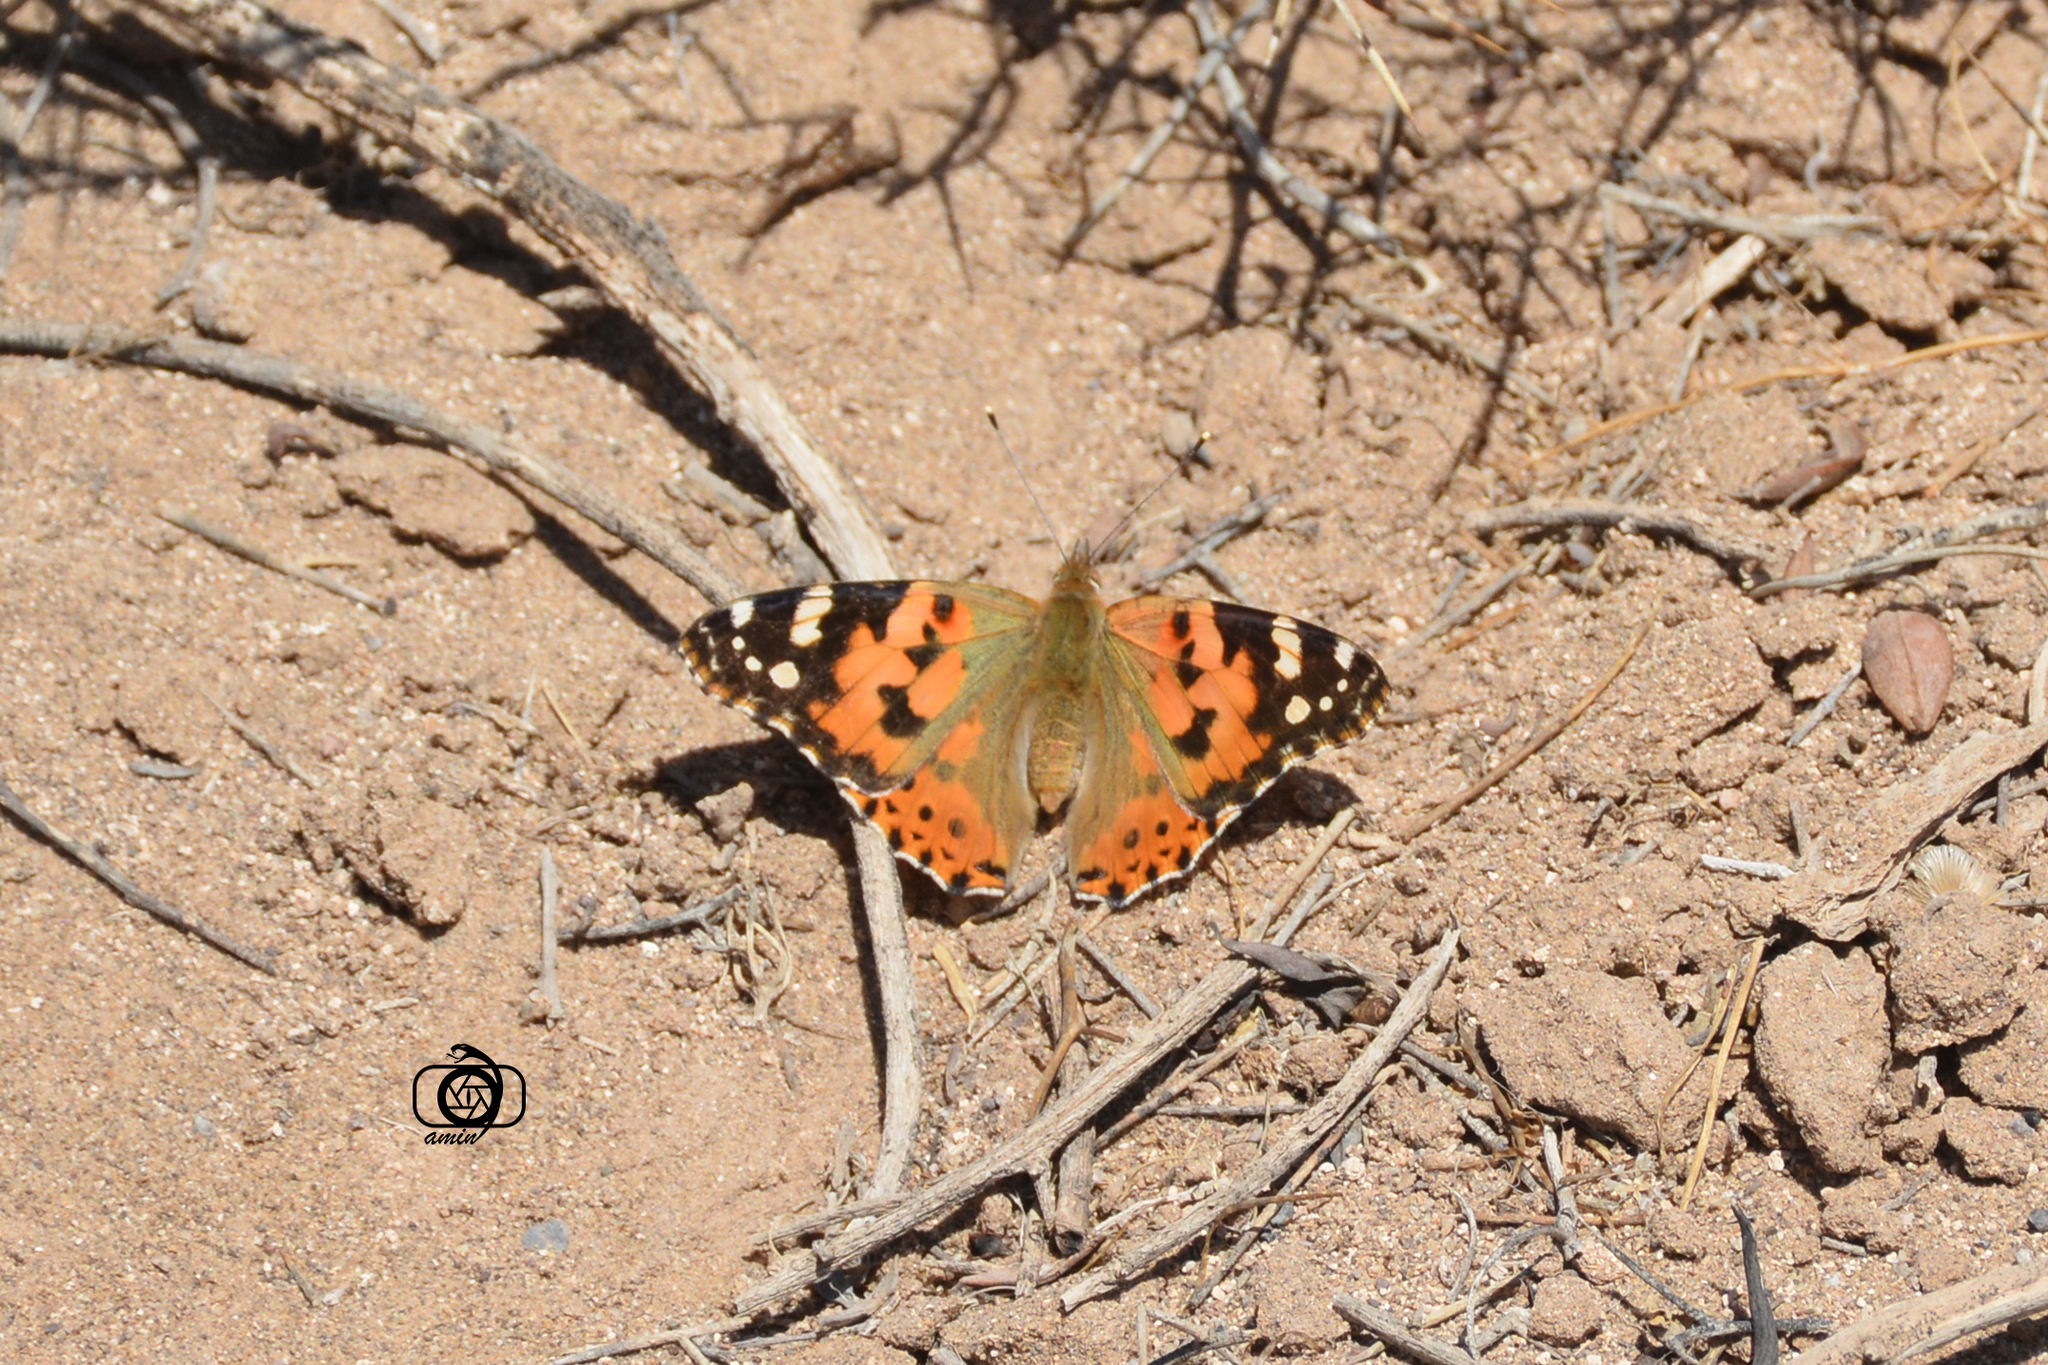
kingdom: Animalia
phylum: Arthropoda
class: Insecta
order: Lepidoptera
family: Nymphalidae
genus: Vanessa
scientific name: Vanessa cardui
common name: Painted lady
